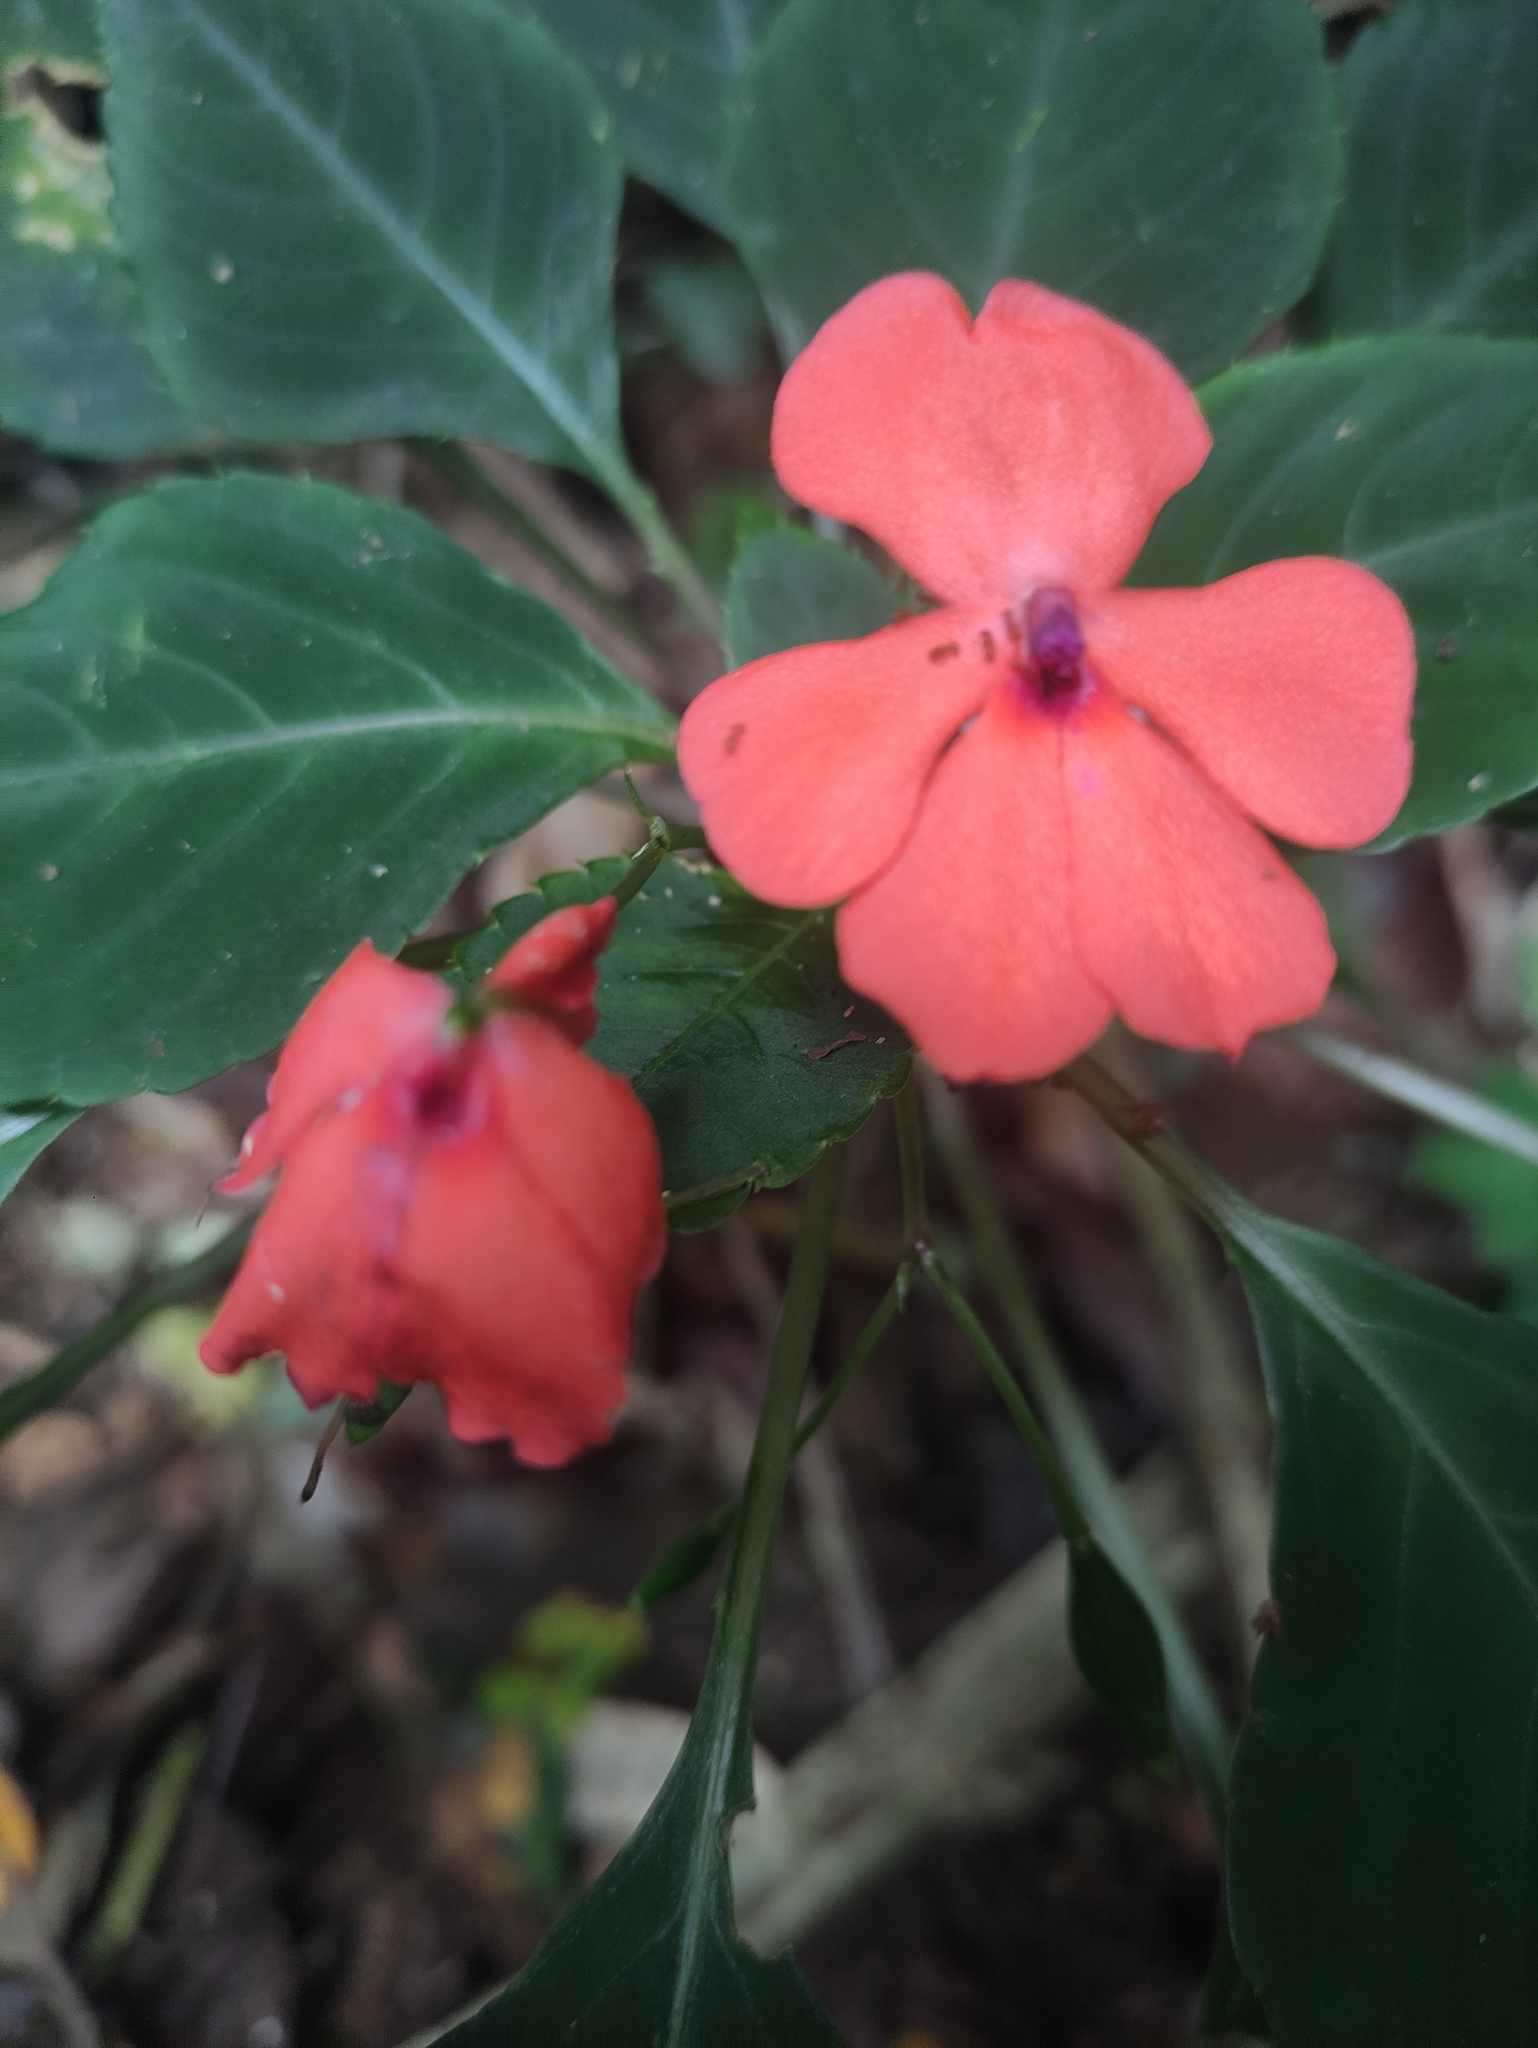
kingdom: Plantae
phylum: Tracheophyta
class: Magnoliopsida
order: Ericales
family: Balsaminaceae
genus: Impatiens
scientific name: Impatiens walleriana
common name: Buzzy lizzy
